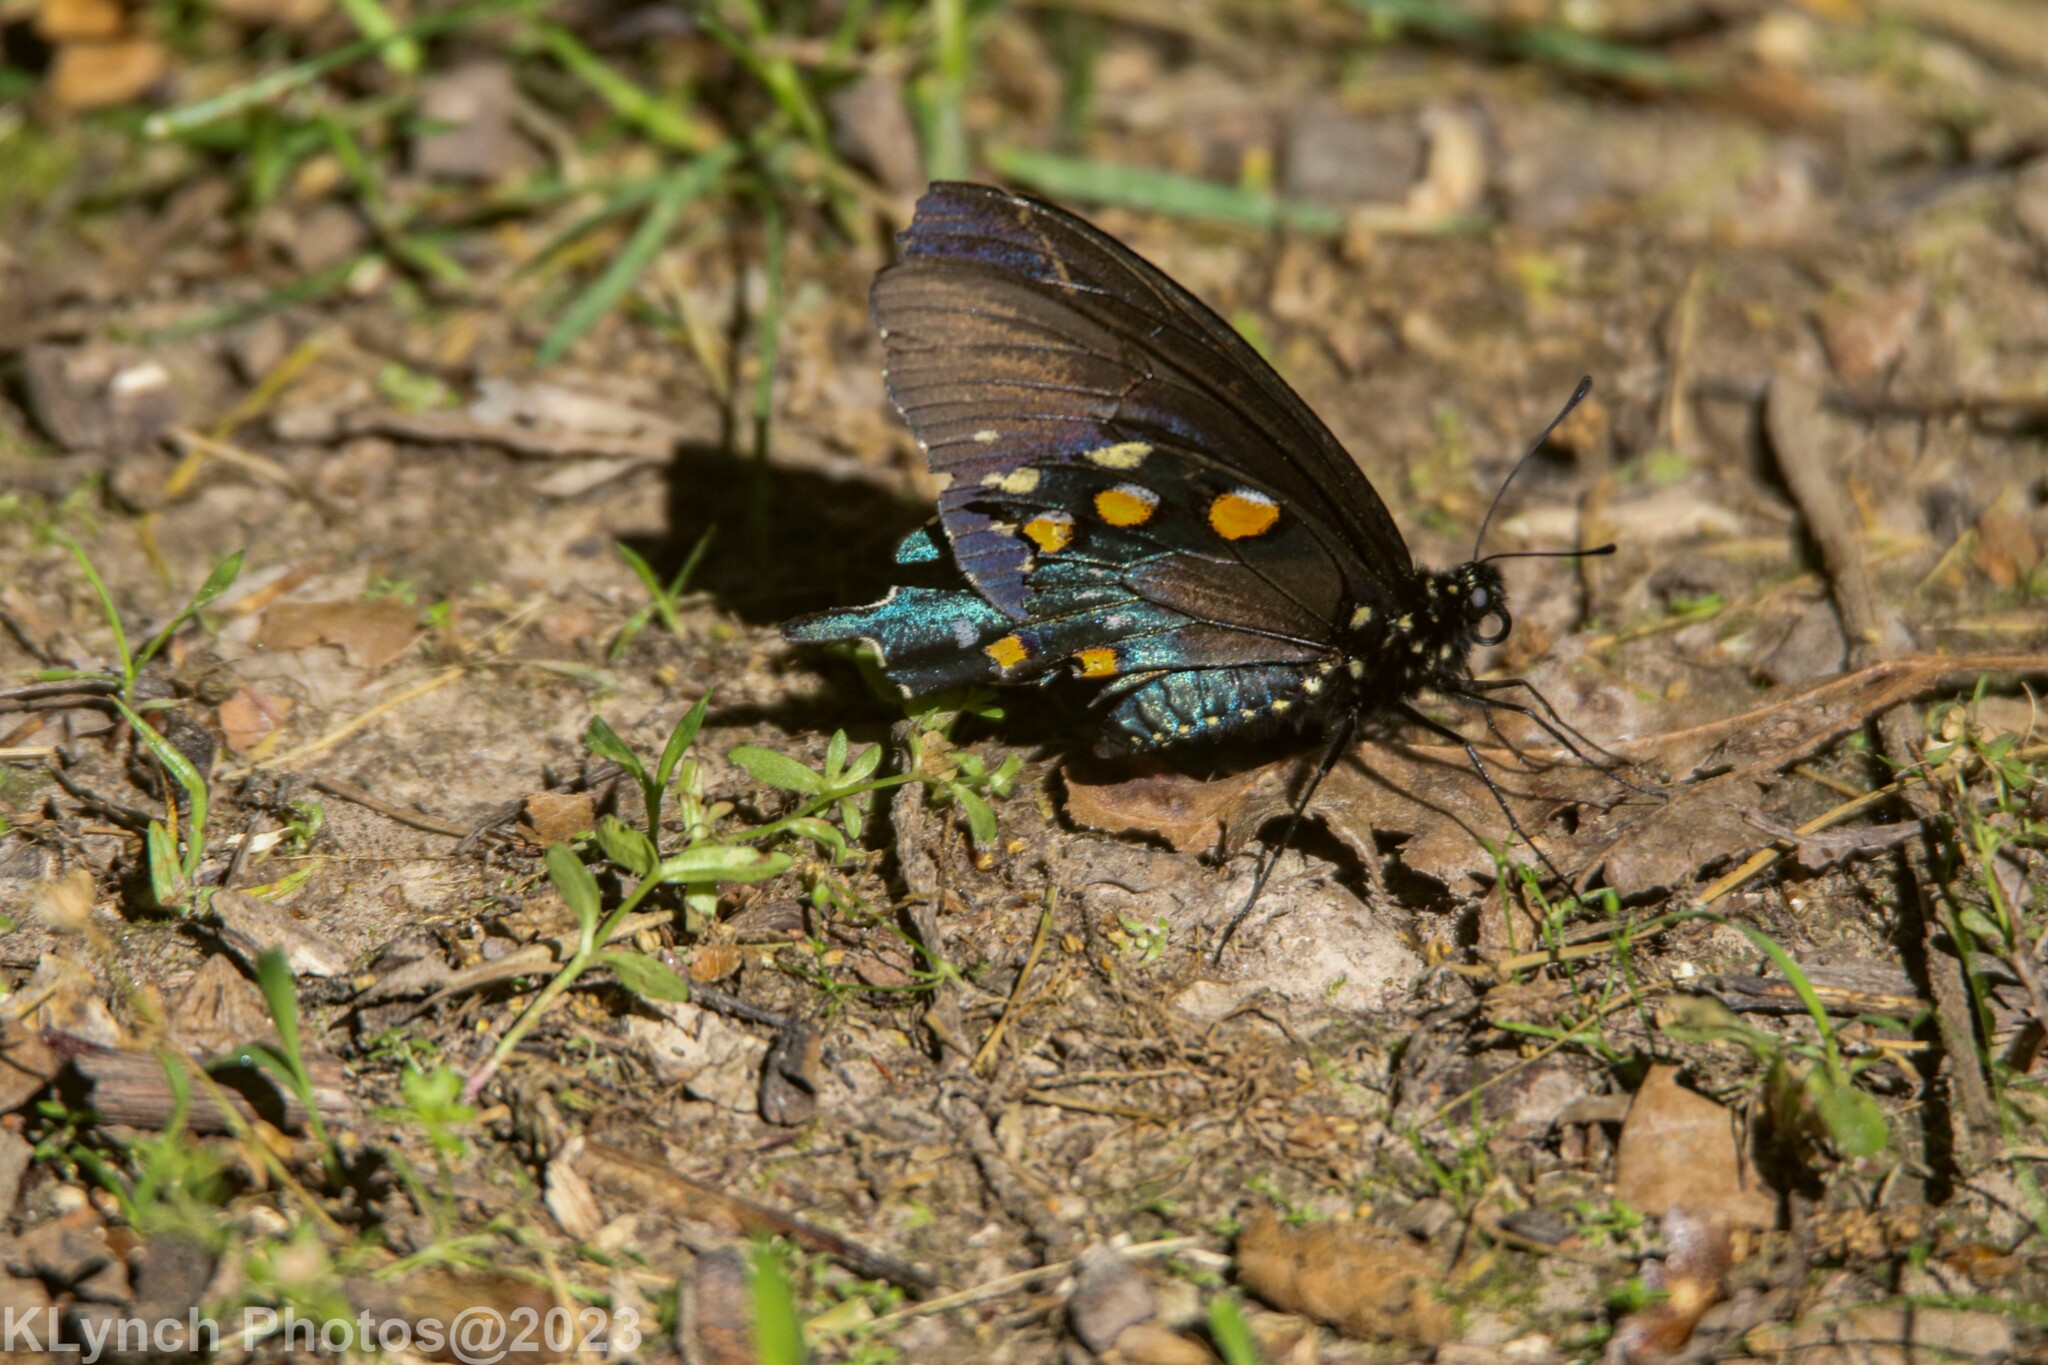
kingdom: Animalia
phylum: Arthropoda
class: Insecta
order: Lepidoptera
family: Papilionidae
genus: Battus
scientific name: Battus philenor
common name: Pipevine swallowtail
